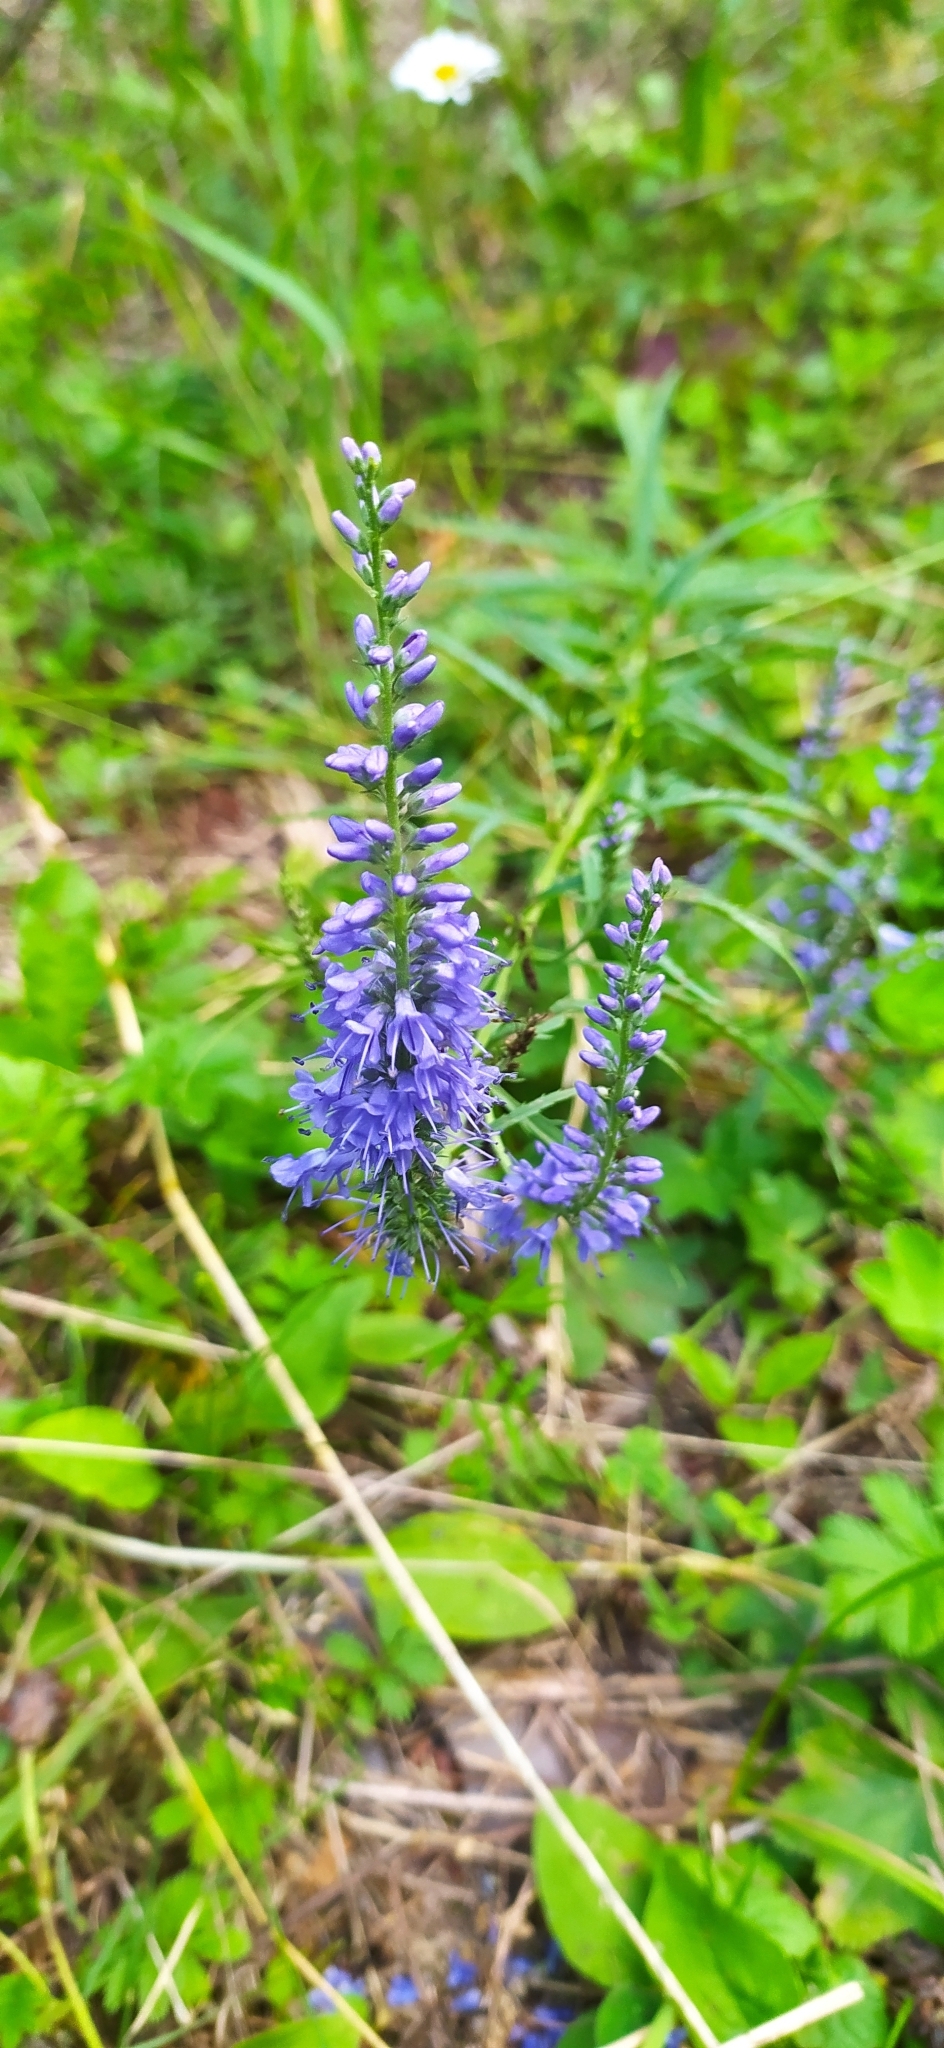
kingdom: Plantae
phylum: Tracheophyta
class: Magnoliopsida
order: Lamiales
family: Plantaginaceae
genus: Veronica
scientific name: Veronica longifolia
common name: Garden speedwell
